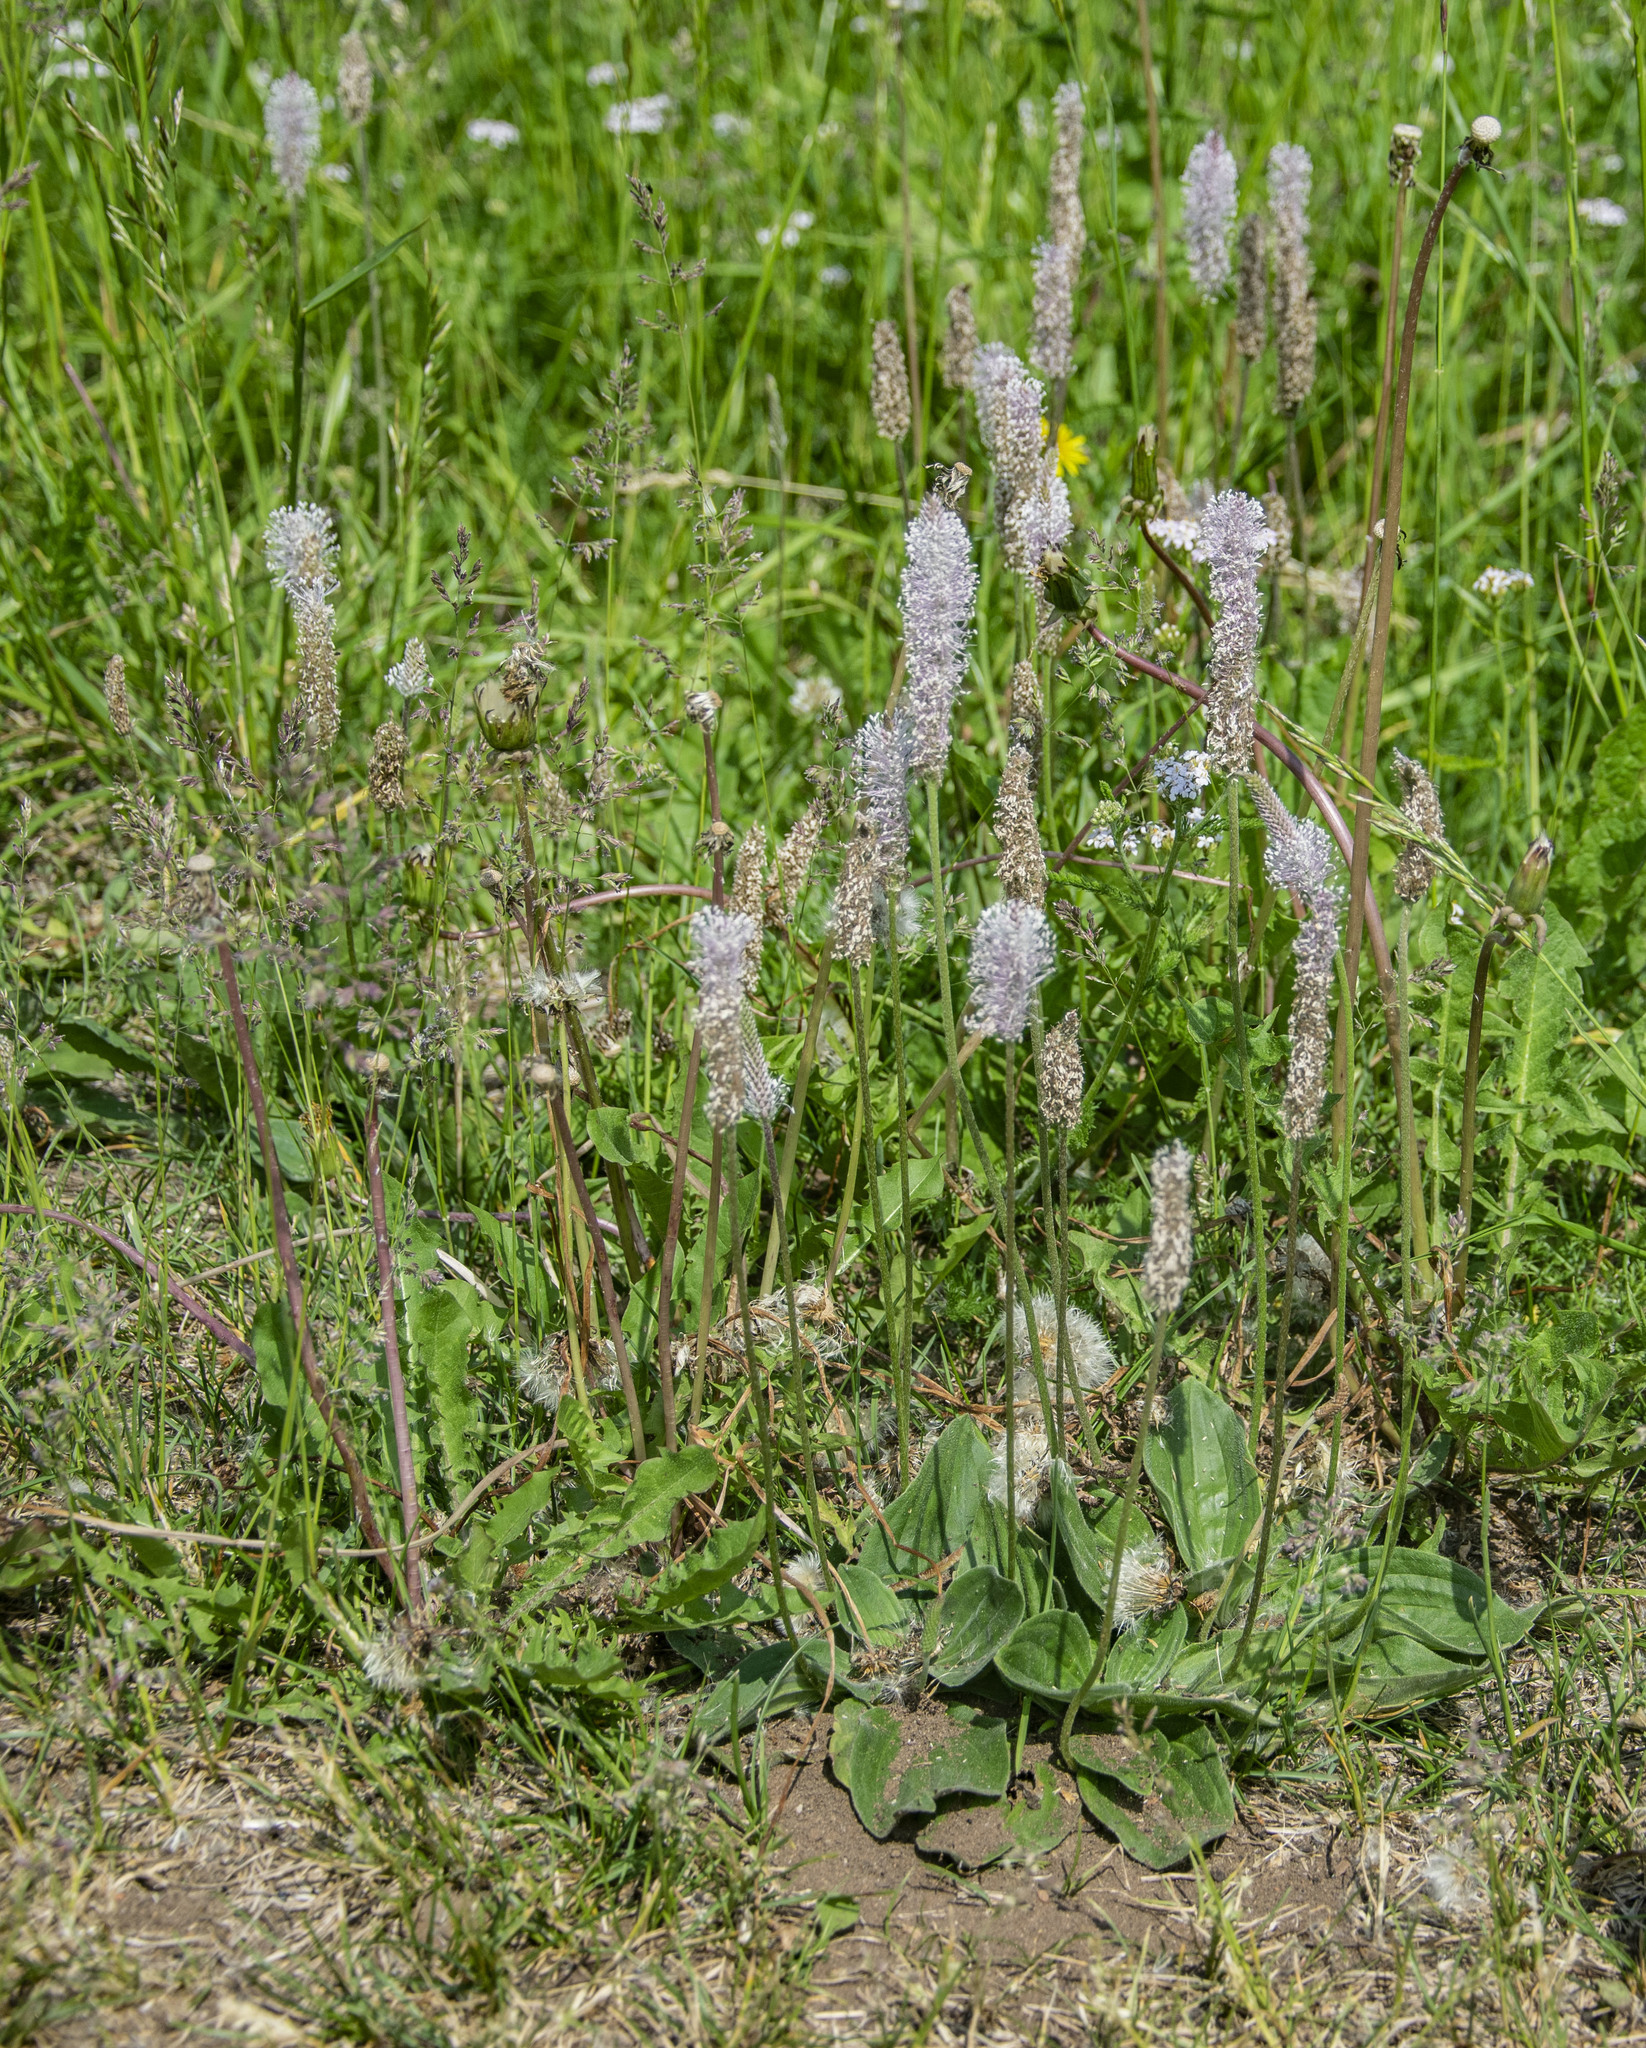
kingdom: Plantae
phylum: Tracheophyta
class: Magnoliopsida
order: Lamiales
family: Plantaginaceae
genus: Plantago
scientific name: Plantago media
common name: Hoary plantain
